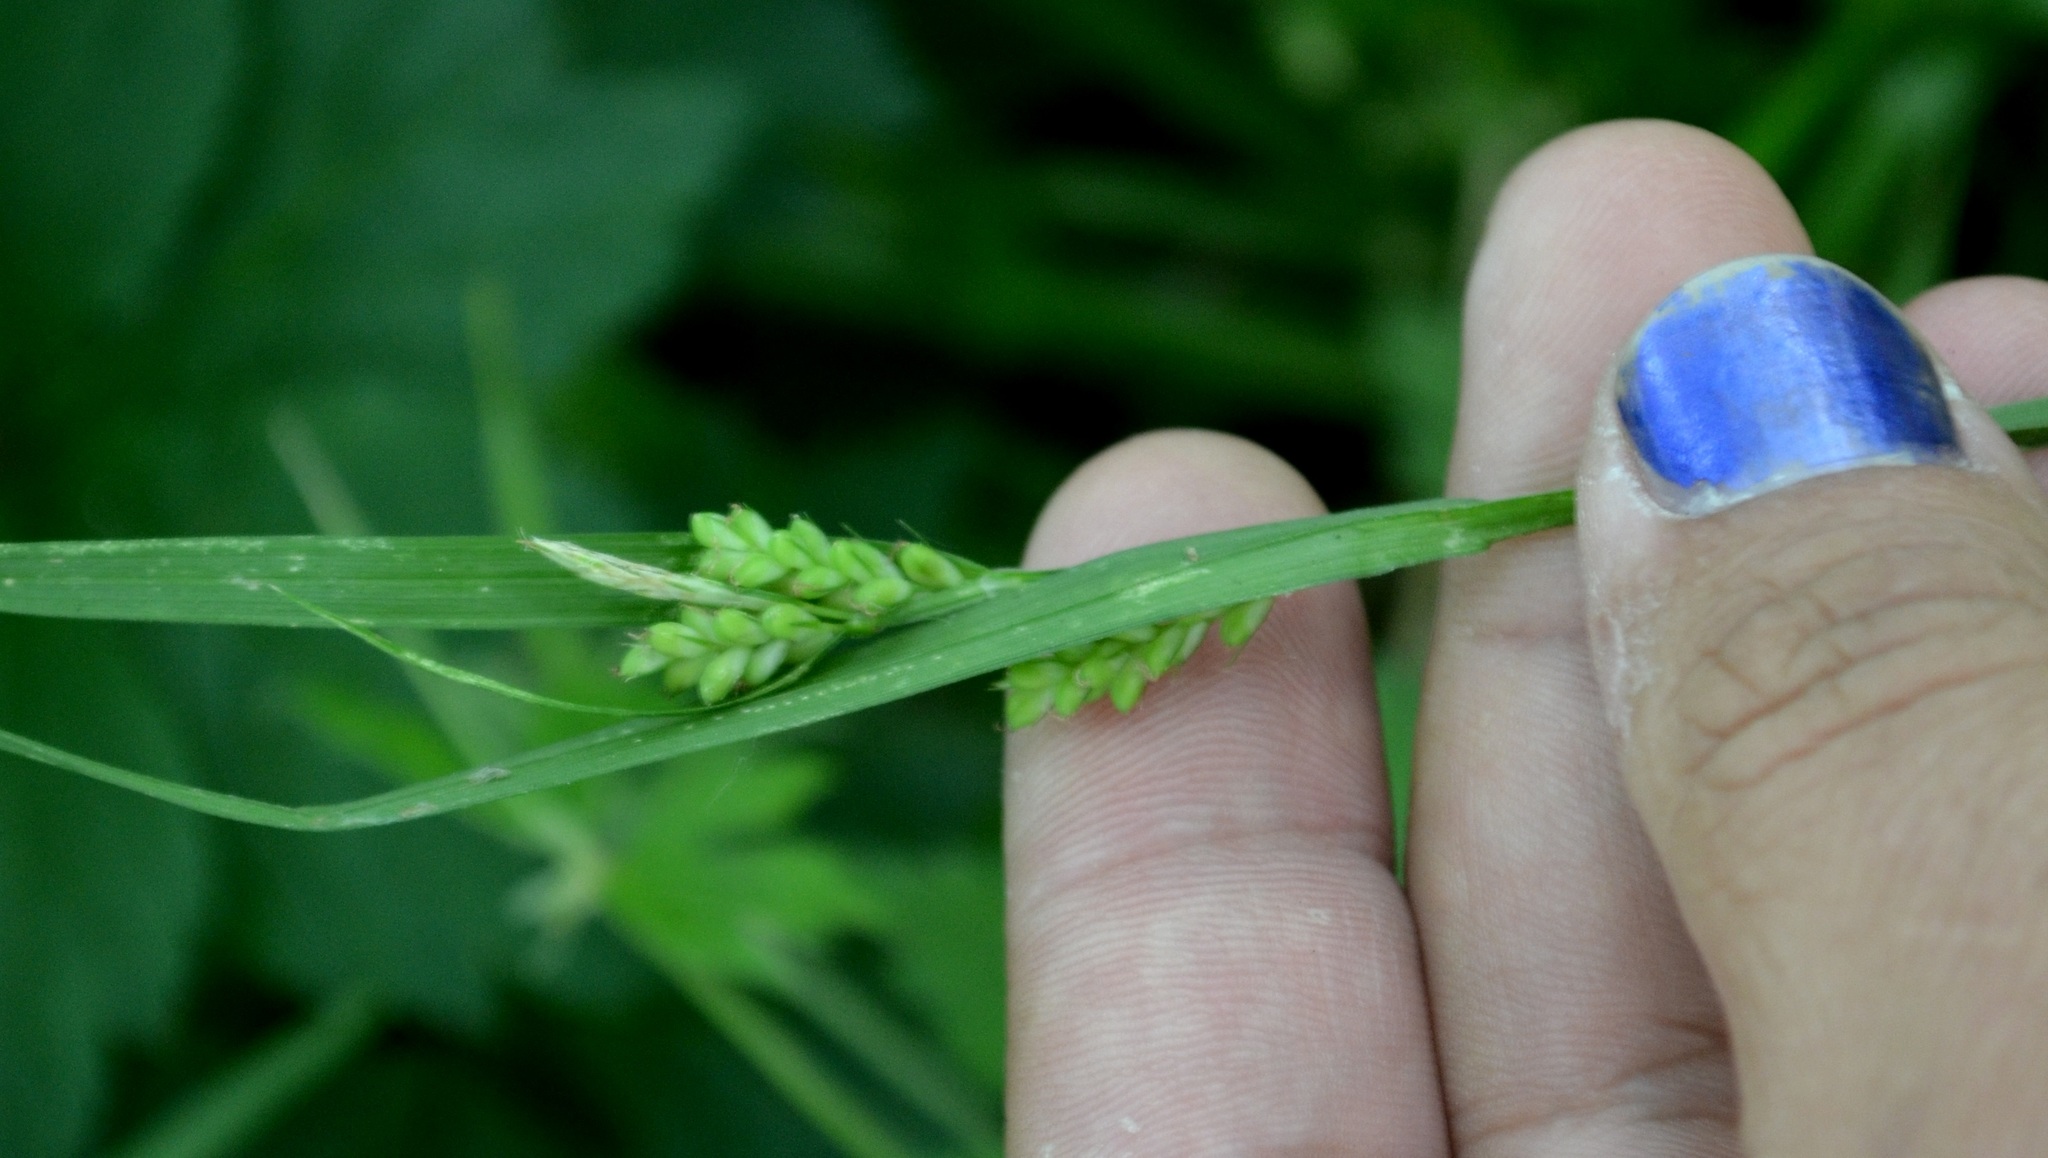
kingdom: Plantae
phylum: Tracheophyta
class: Liliopsida
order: Poales
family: Cyperaceae
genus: Carex
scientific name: Carex blanda
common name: Bland sedge
